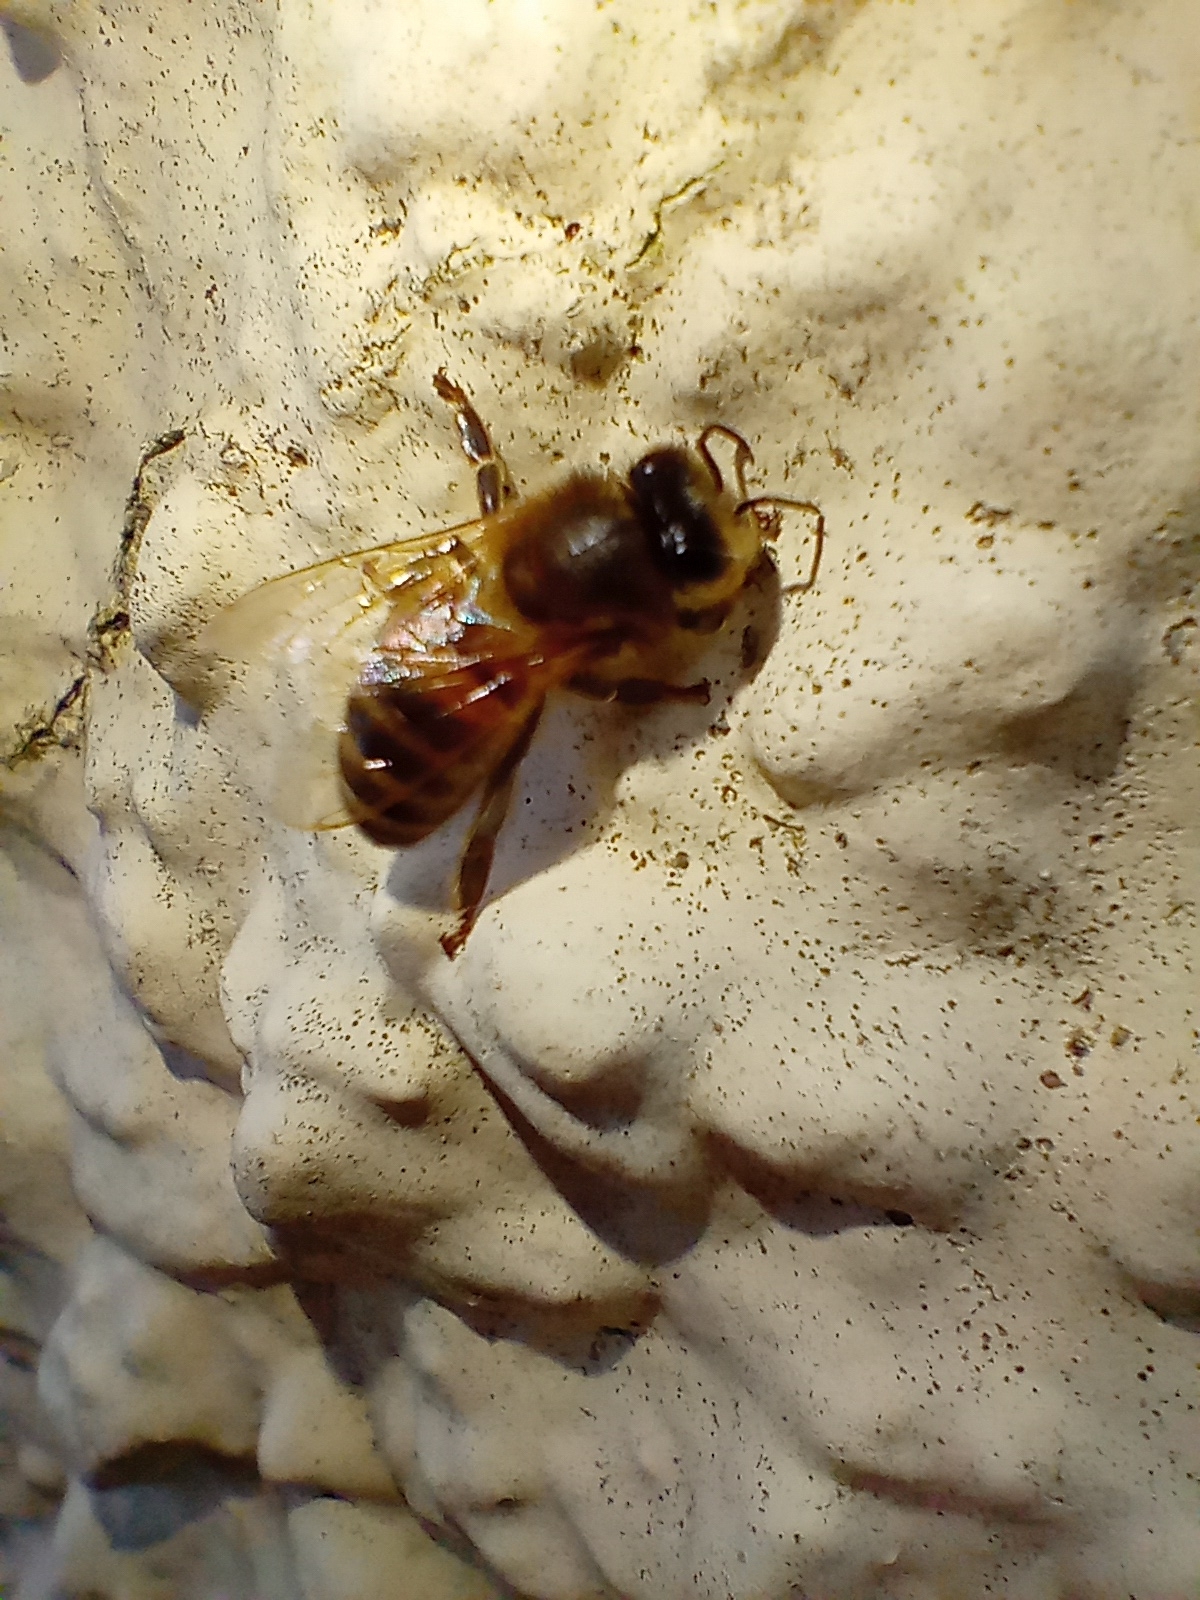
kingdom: Animalia
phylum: Arthropoda
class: Insecta
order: Hymenoptera
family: Apidae
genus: Apis
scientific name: Apis mellifera
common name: Honey bee
